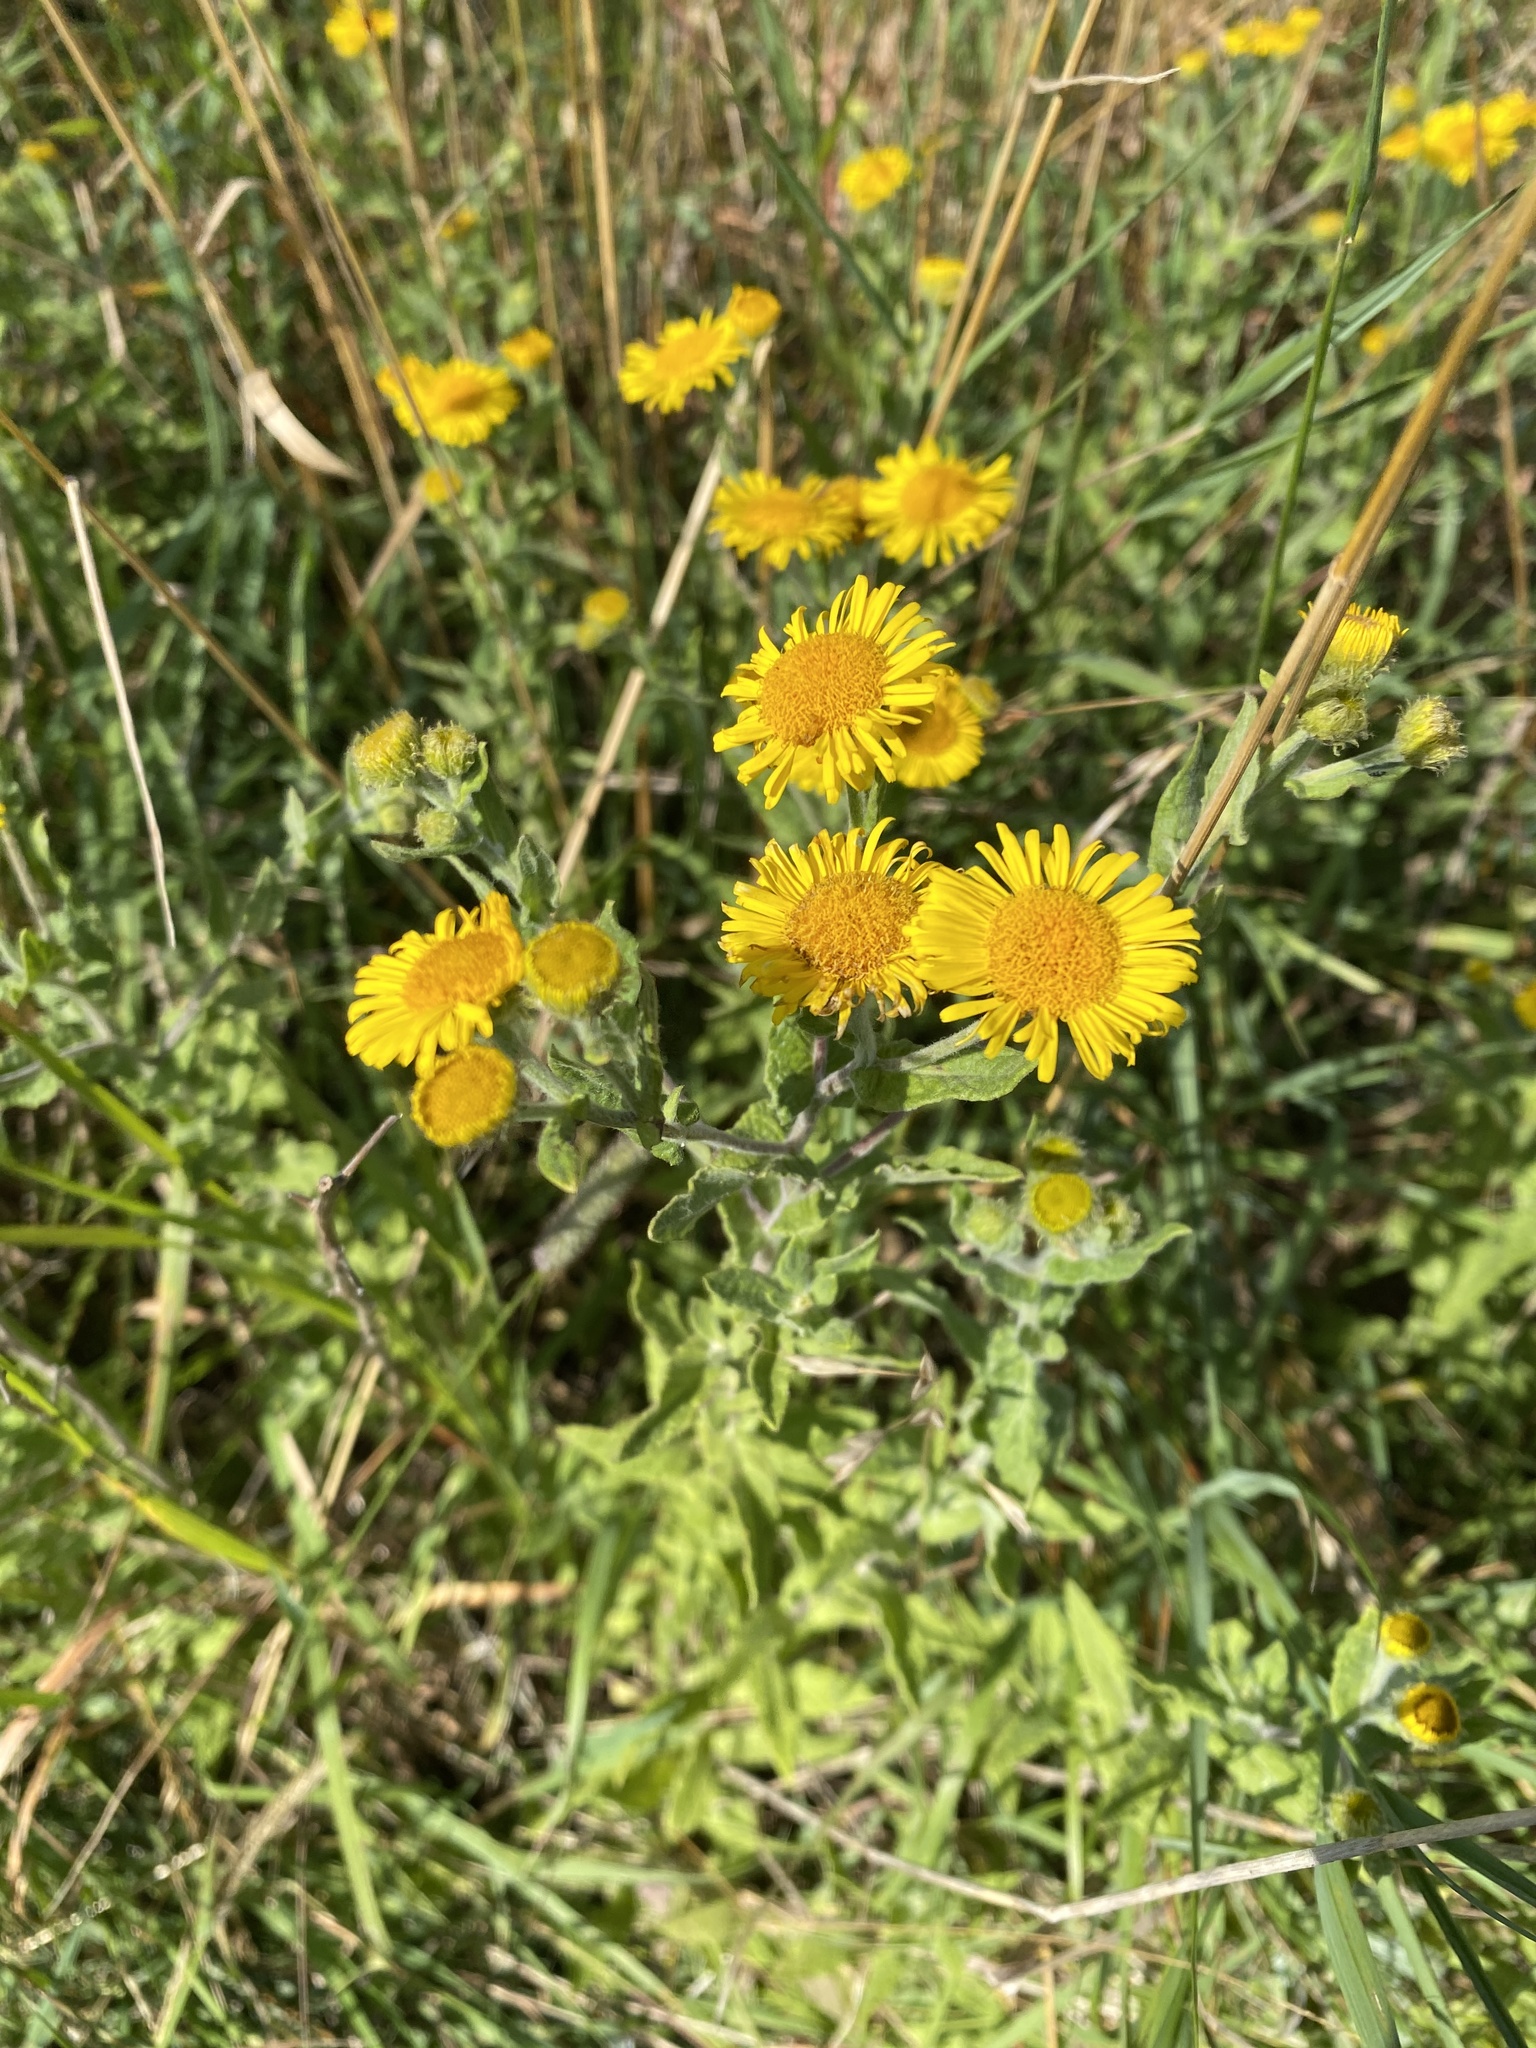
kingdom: Plantae
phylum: Tracheophyta
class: Magnoliopsida
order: Asterales
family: Asteraceae
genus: Pulicaria
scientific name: Pulicaria dysenterica
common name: Common fleabane
